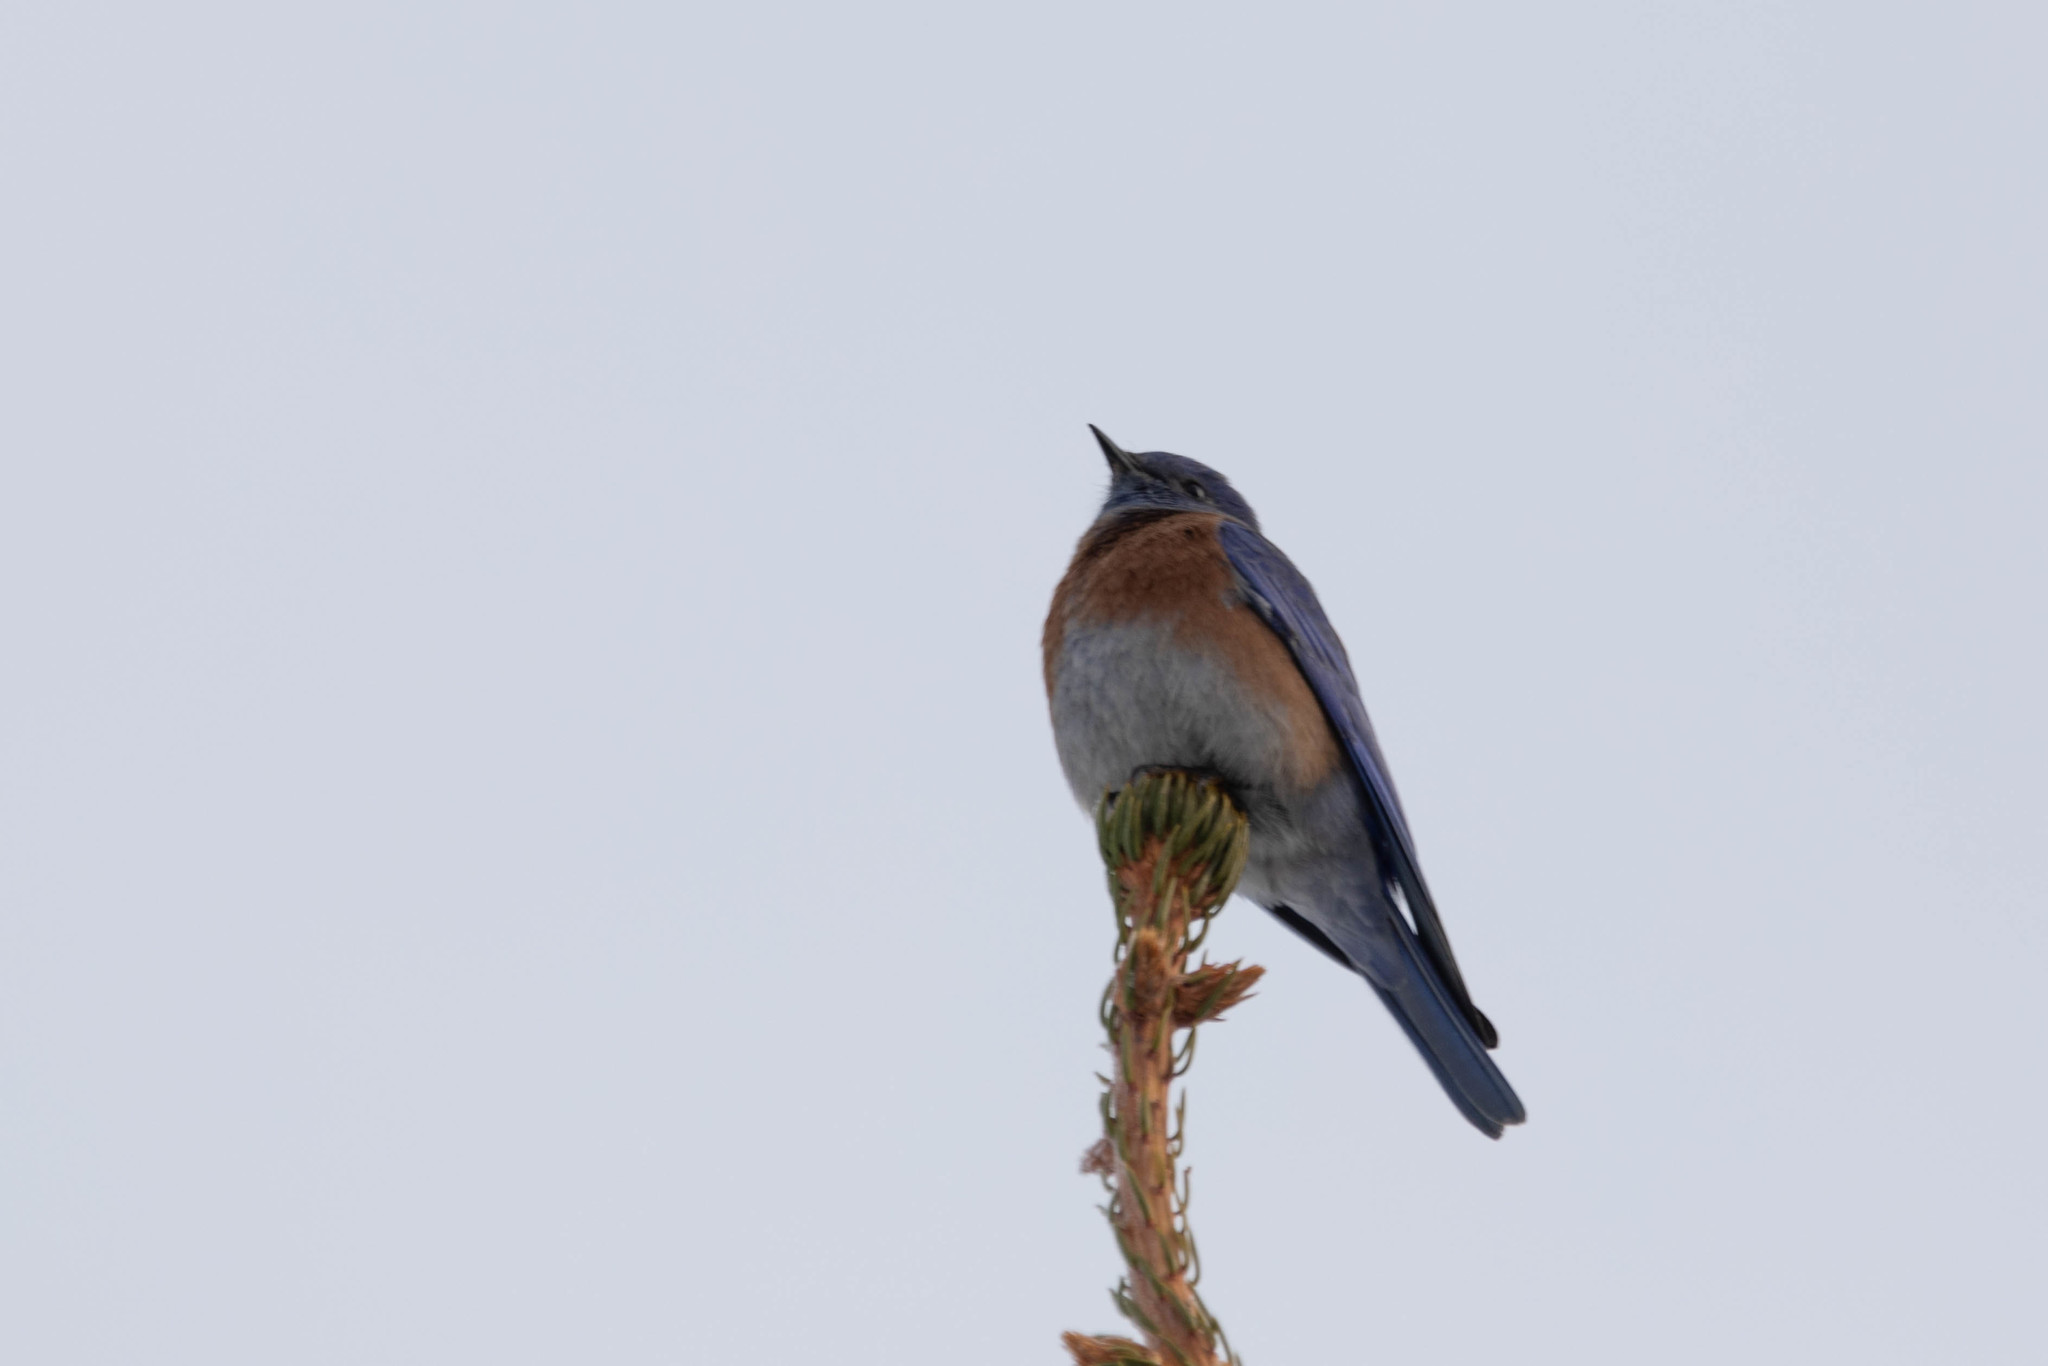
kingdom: Animalia
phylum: Chordata
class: Aves
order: Passeriformes
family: Turdidae
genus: Sialia
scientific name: Sialia mexicana
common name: Western bluebird
